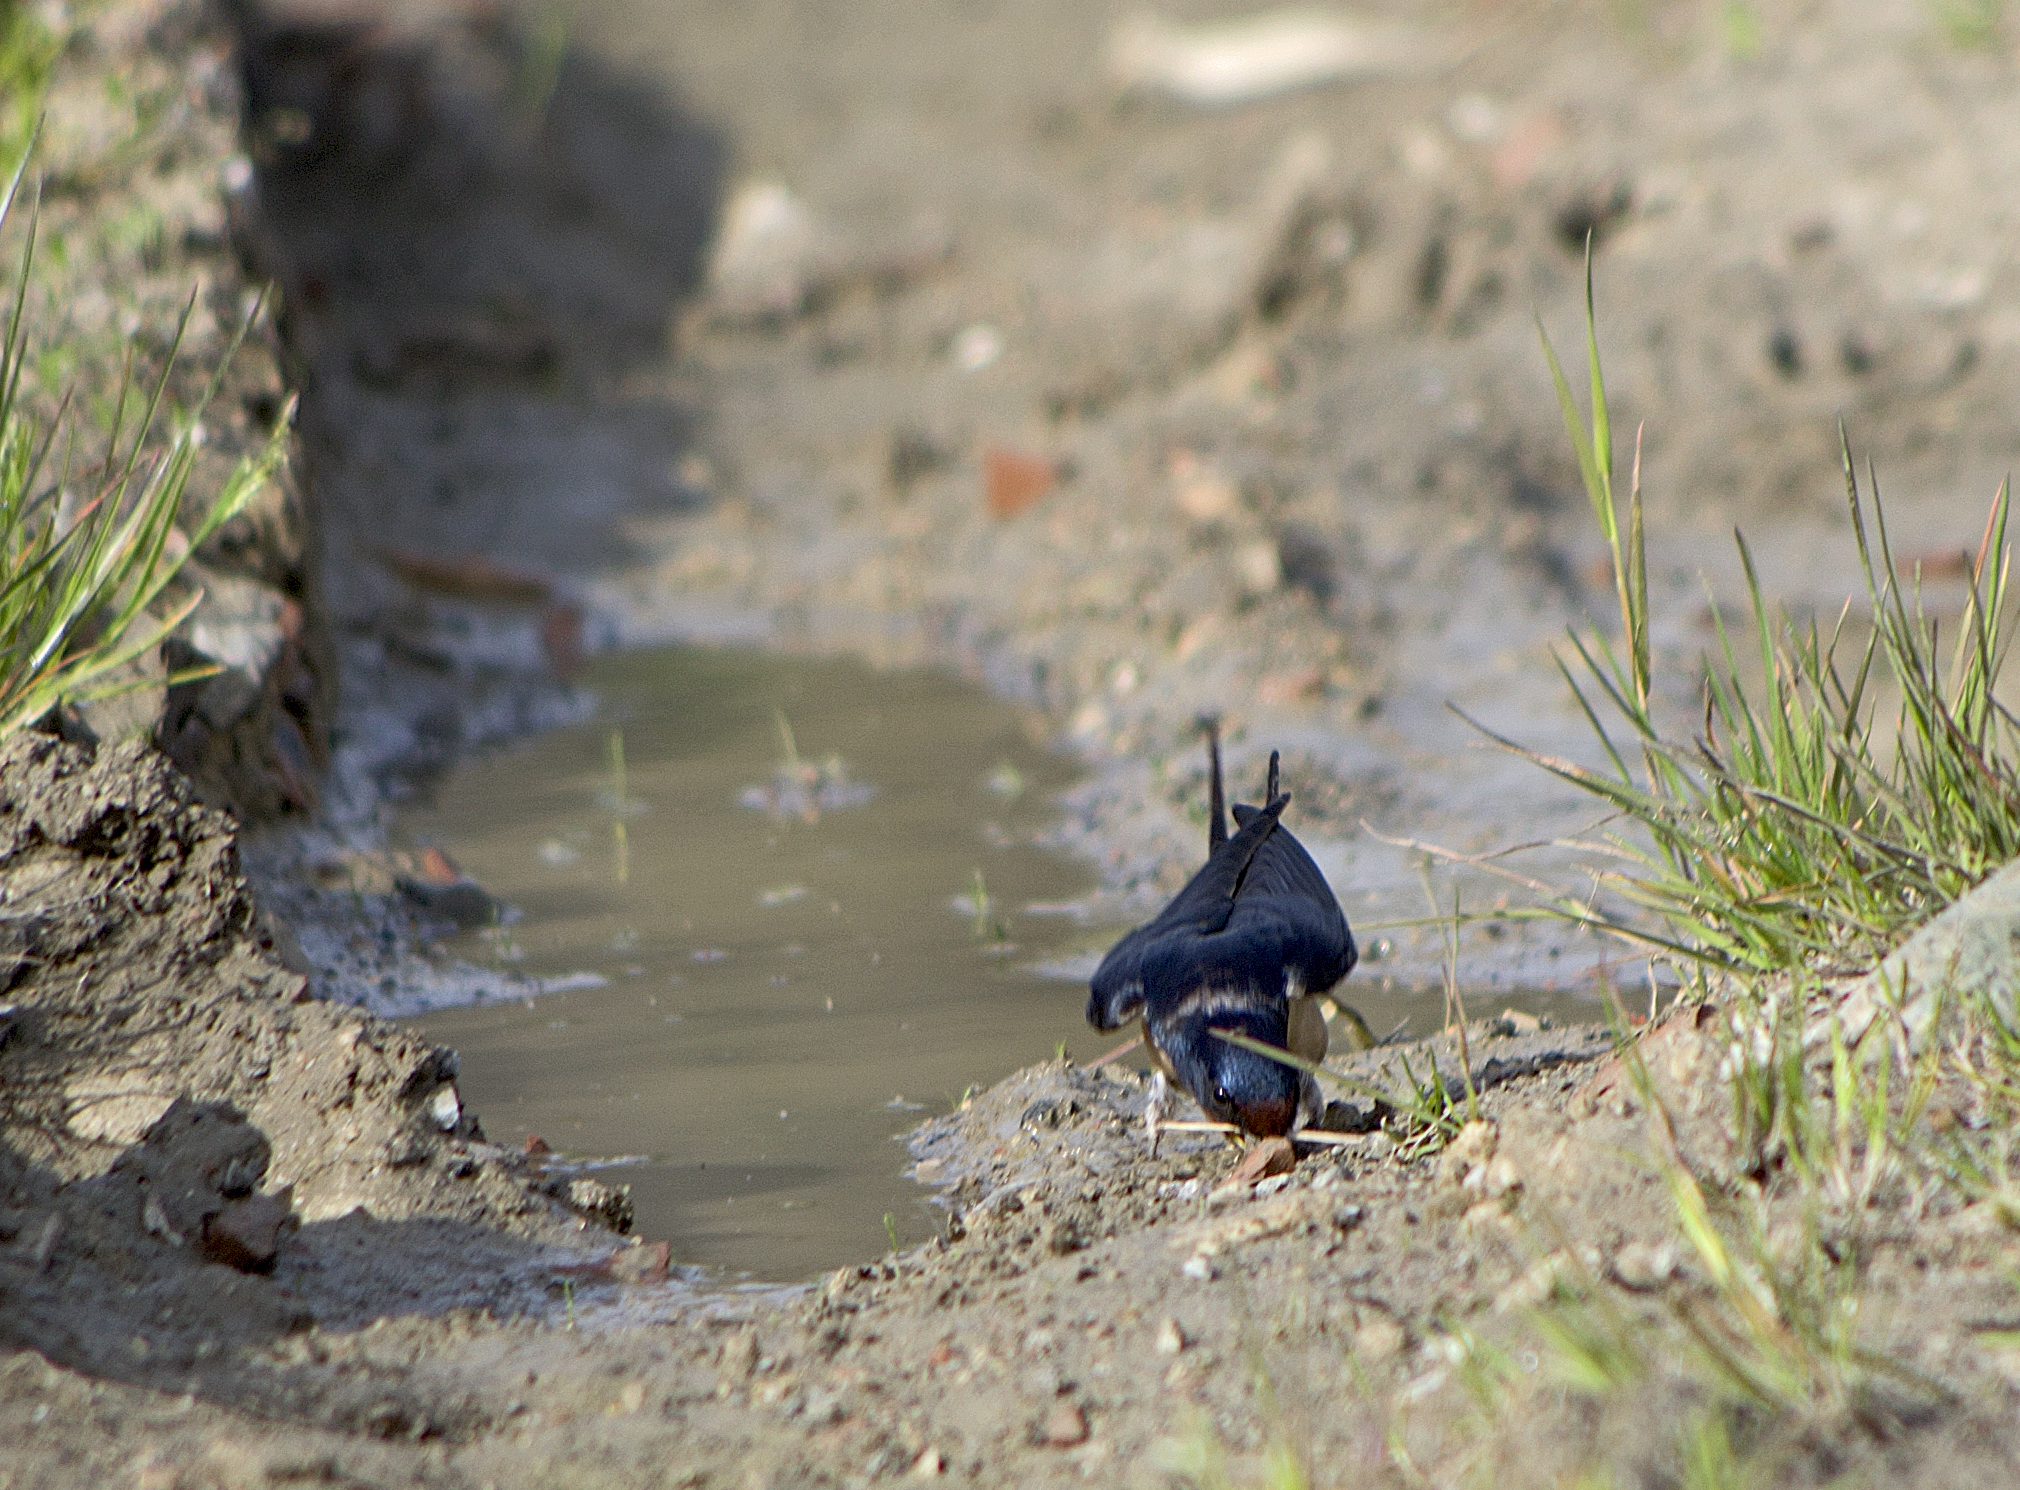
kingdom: Animalia
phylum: Chordata
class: Aves
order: Passeriformes
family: Hirundinidae
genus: Hirundo
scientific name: Hirundo rustica
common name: Barn swallow
